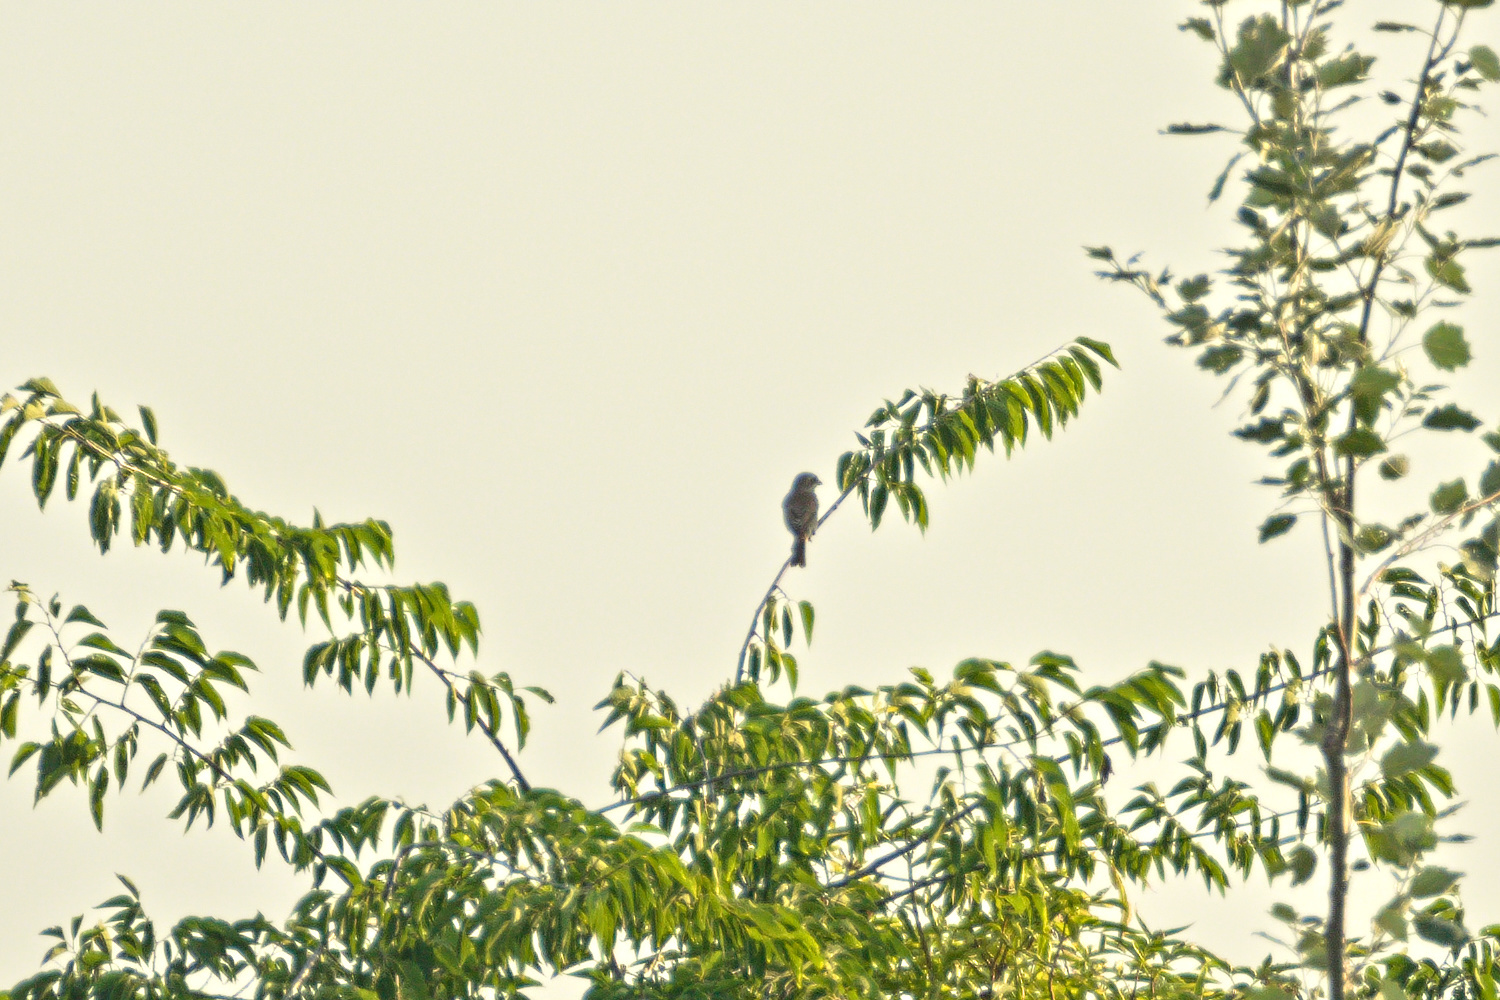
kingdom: Animalia
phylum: Chordata
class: Aves
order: Passeriformes
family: Laniidae
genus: Lanius
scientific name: Lanius collurio
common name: Red-backed shrike
